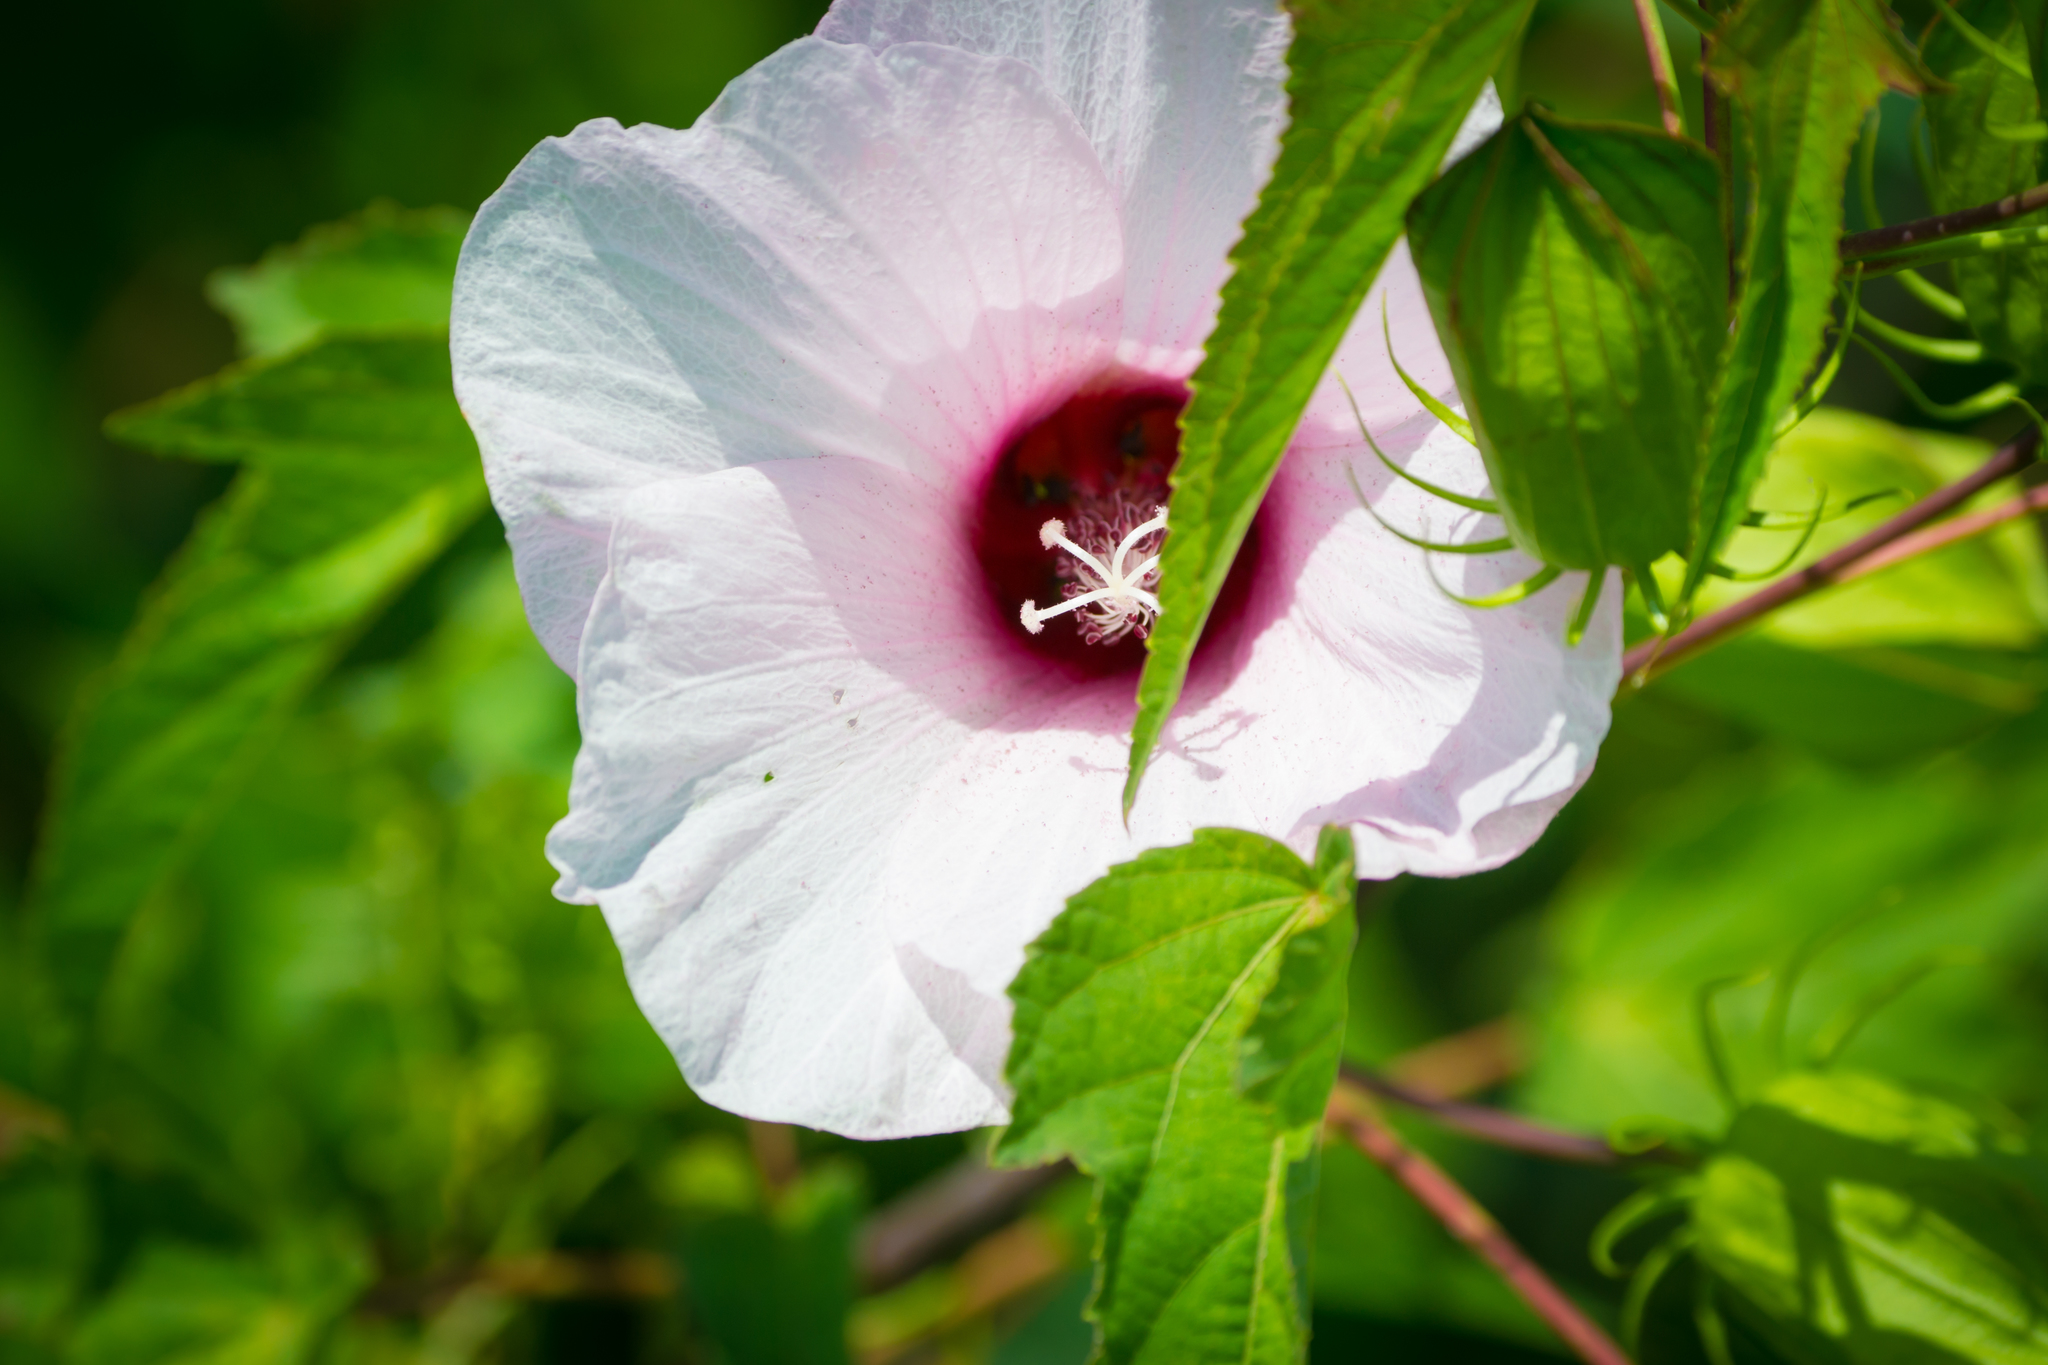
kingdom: Plantae
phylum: Tracheophyta
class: Magnoliopsida
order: Malvales
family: Malvaceae
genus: Hibiscus
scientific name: Hibiscus laevis
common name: Scarlet rose-mallow
